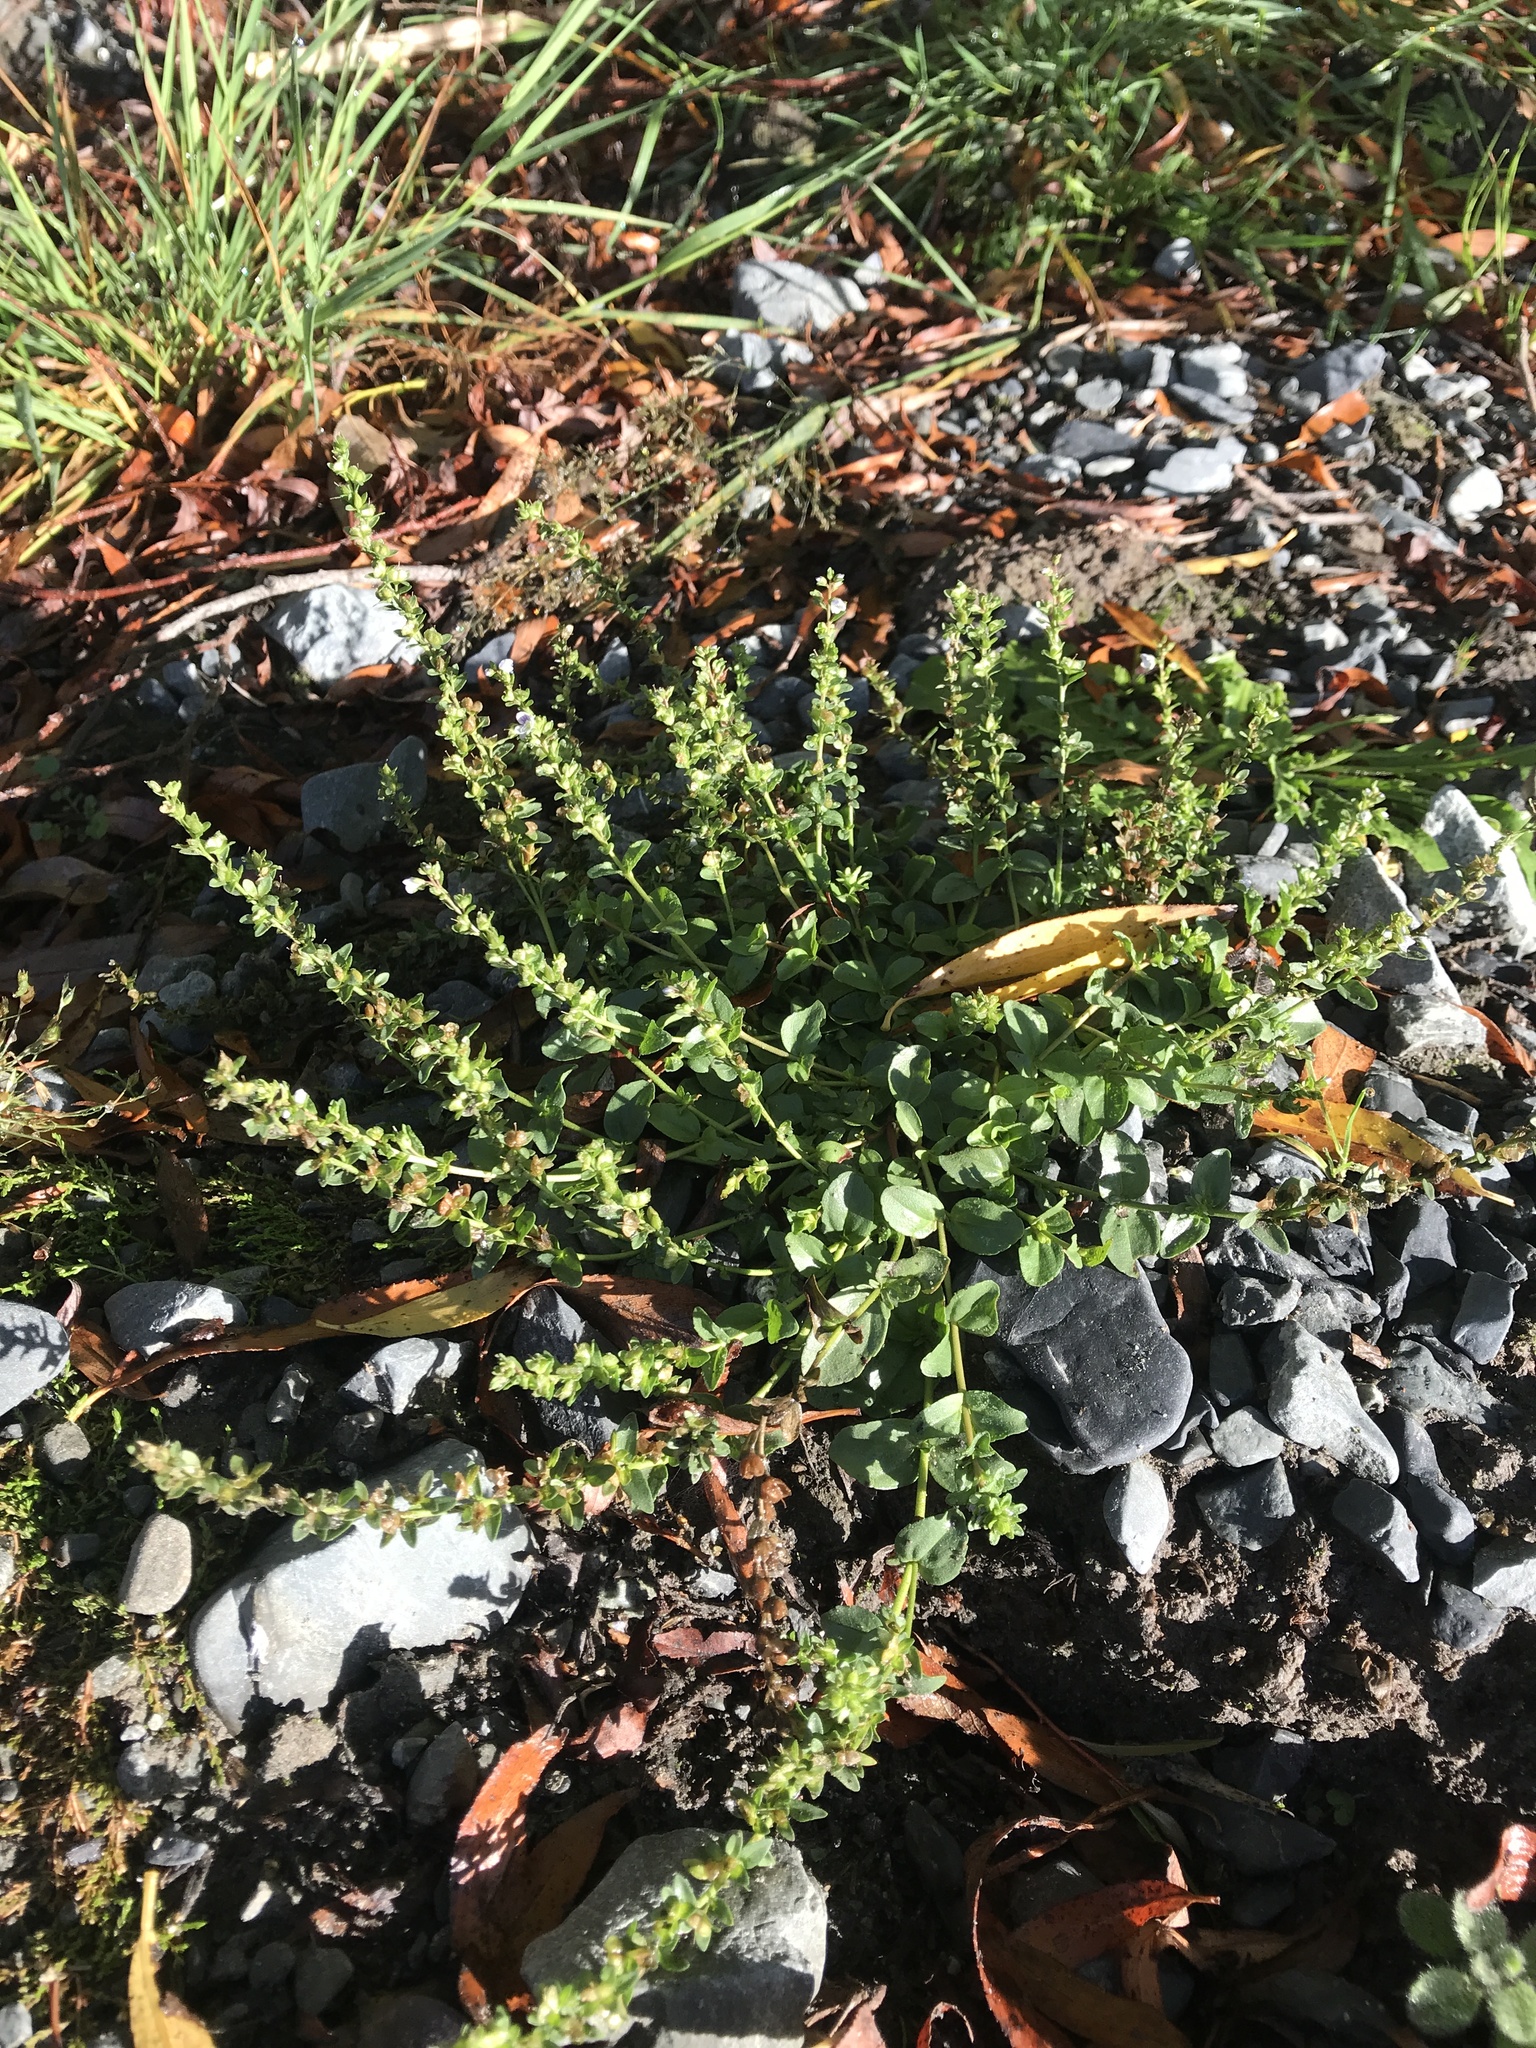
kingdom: Plantae
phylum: Tracheophyta
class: Magnoliopsida
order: Lamiales
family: Plantaginaceae
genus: Veronica
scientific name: Veronica serpyllifolia
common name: Thyme-leaved speedwell
